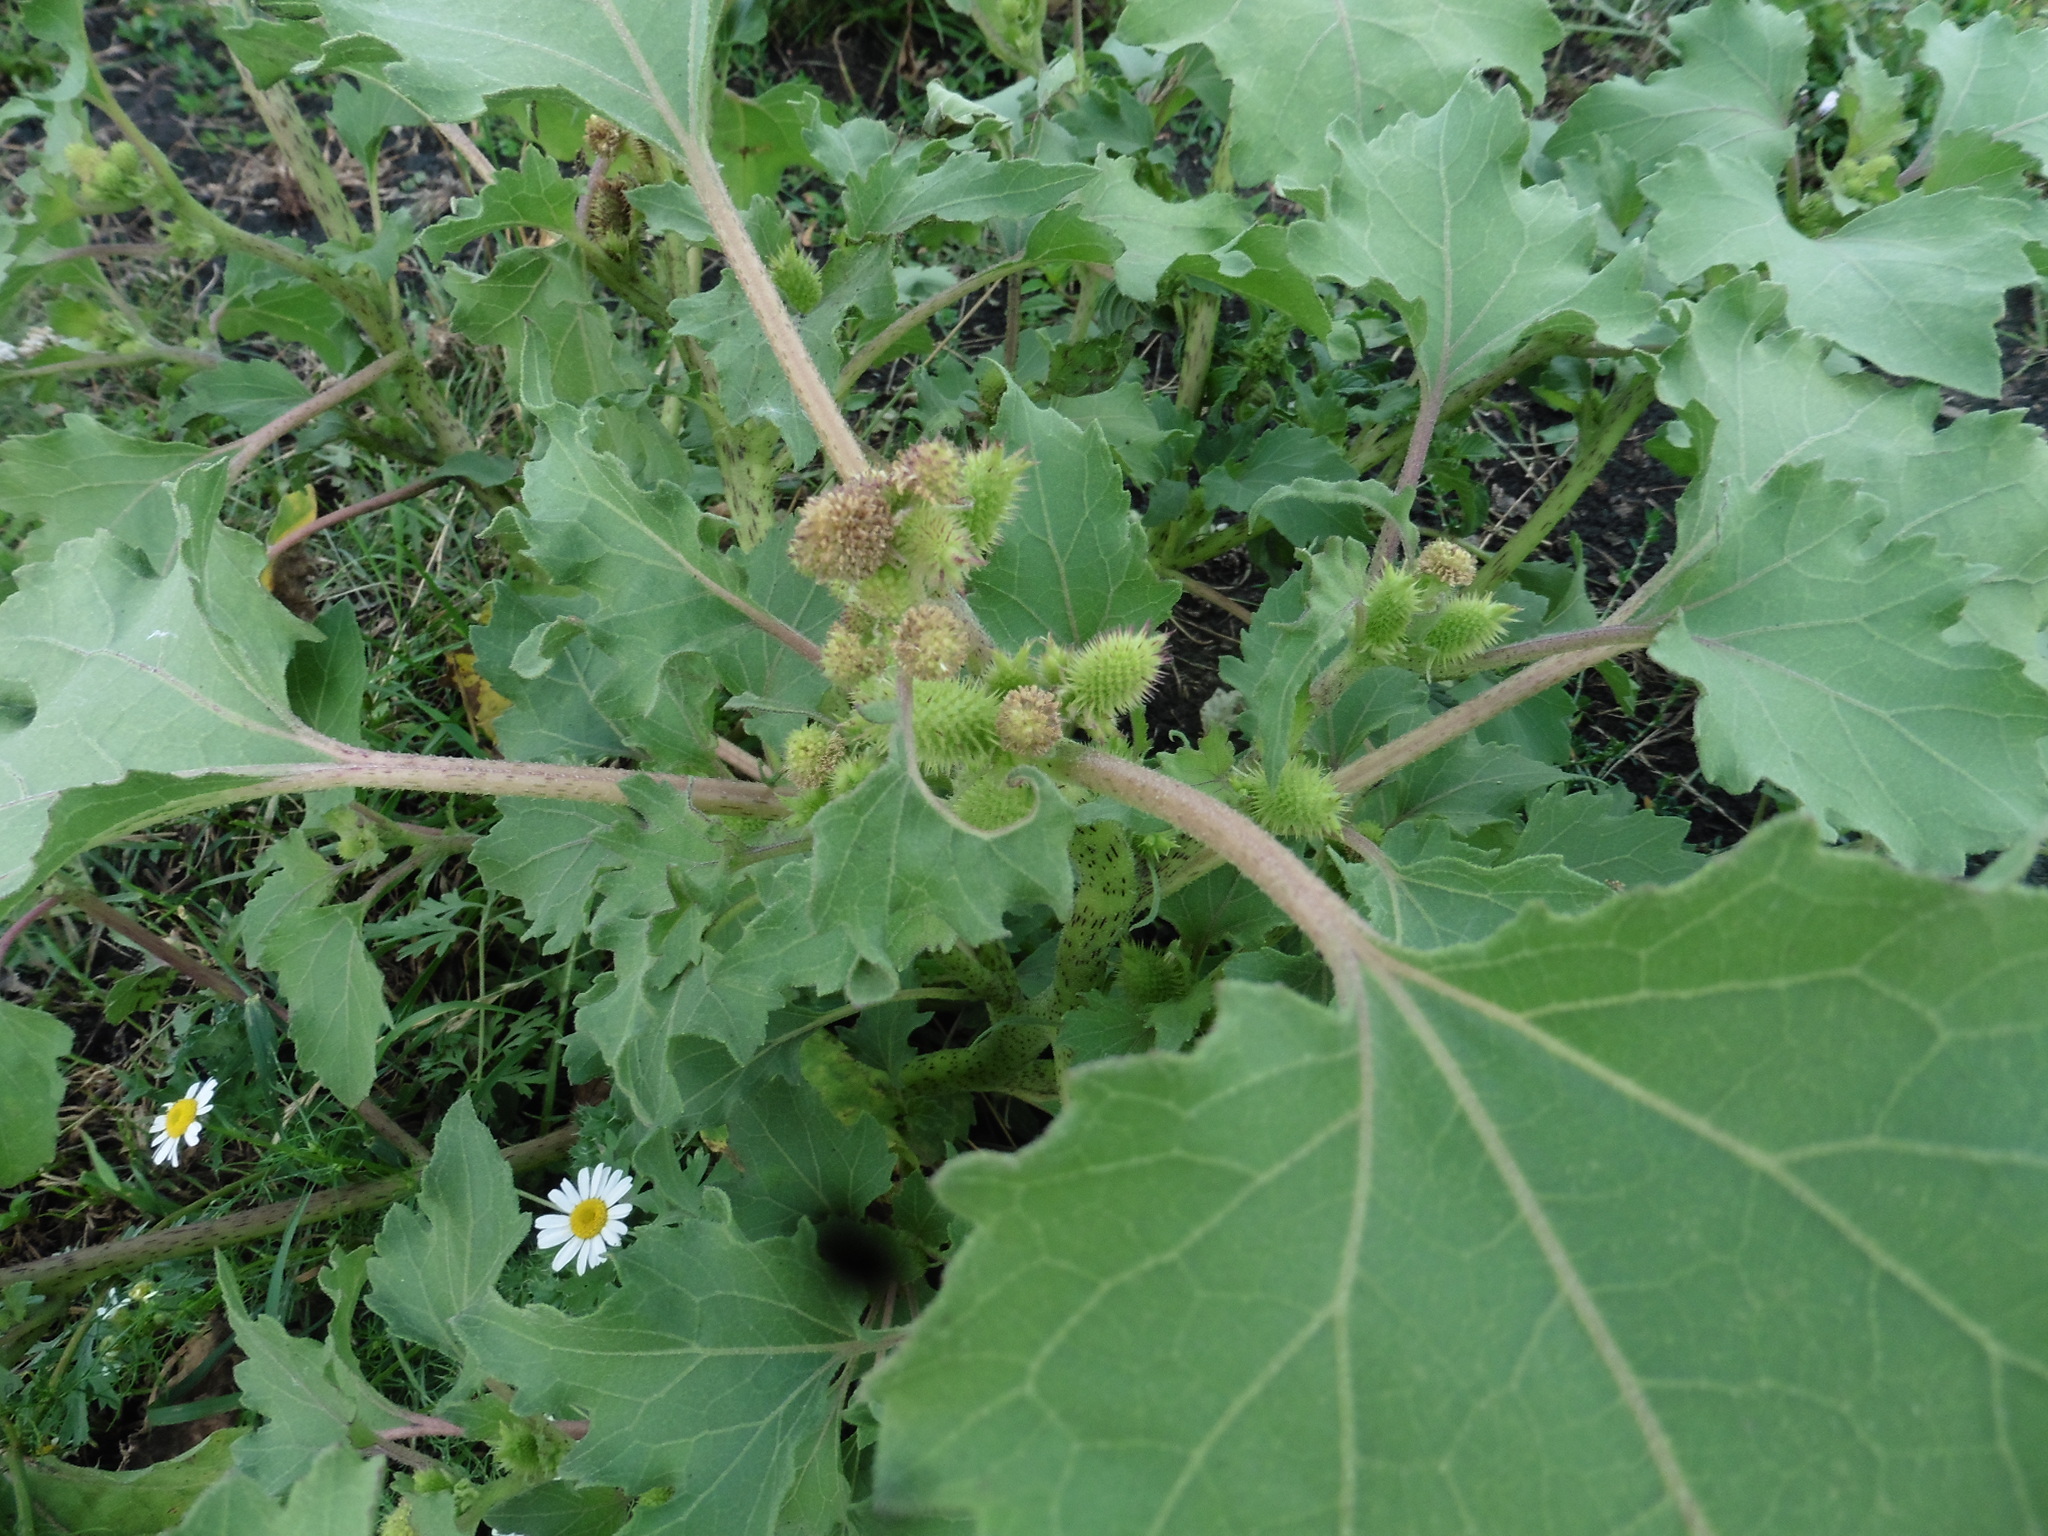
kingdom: Plantae
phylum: Tracheophyta
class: Magnoliopsida
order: Asterales
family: Asteraceae
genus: Xanthium
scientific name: Xanthium orientale
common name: Californian burr
